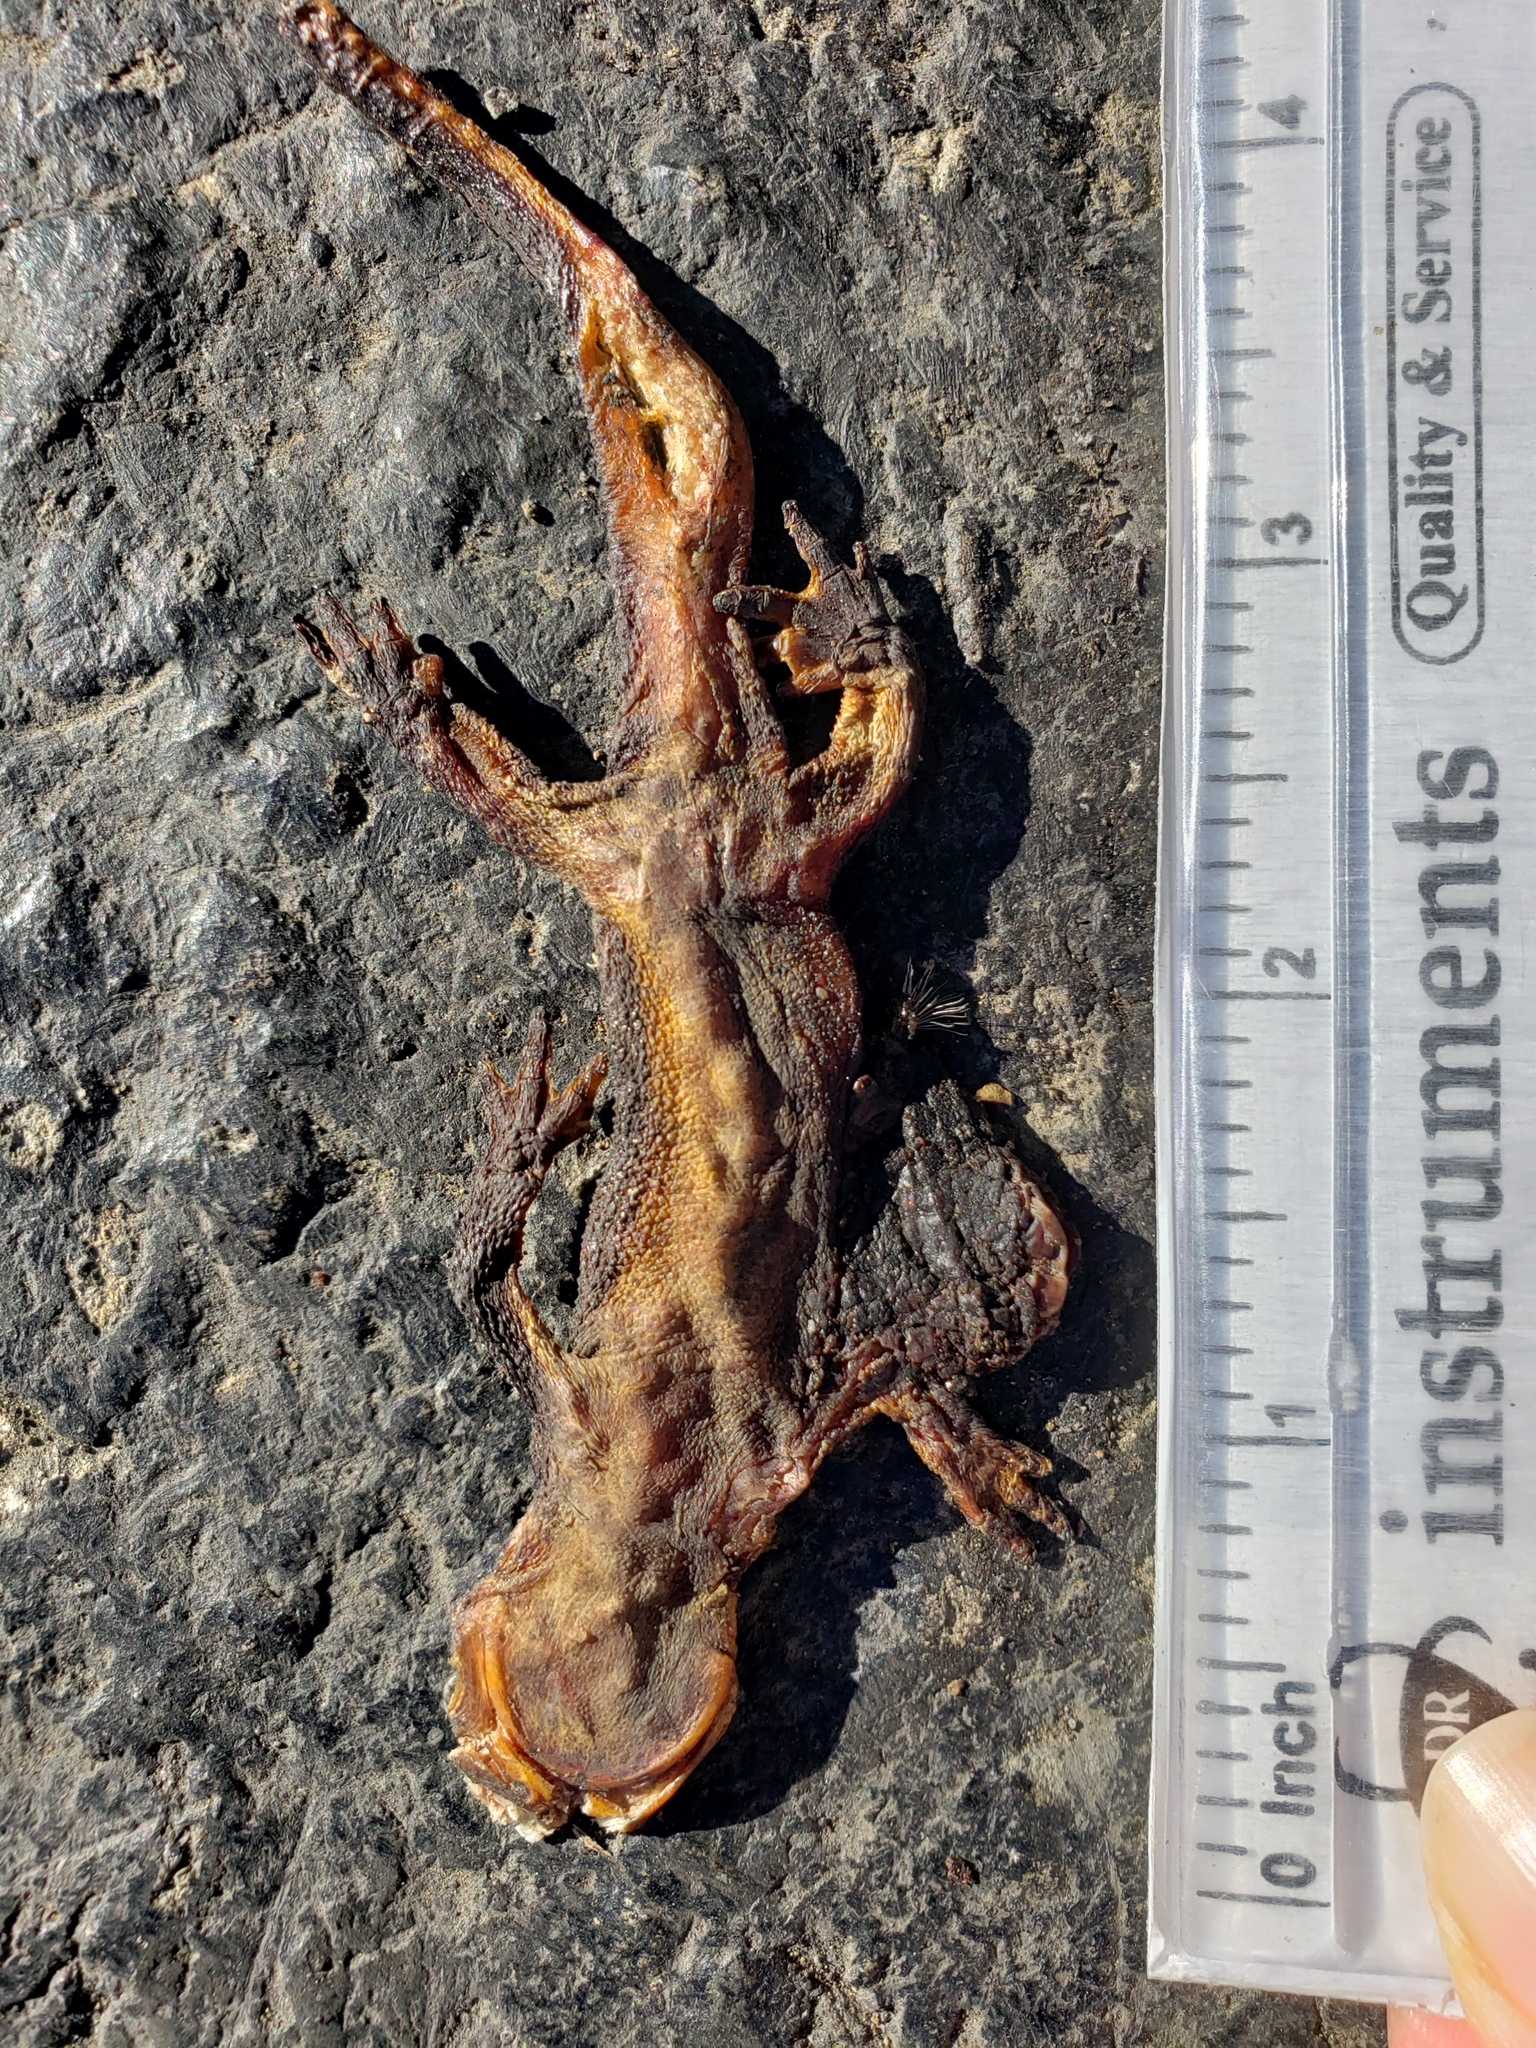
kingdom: Animalia
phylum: Chordata
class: Amphibia
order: Caudata
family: Salamandridae
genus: Taricha
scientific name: Taricha
